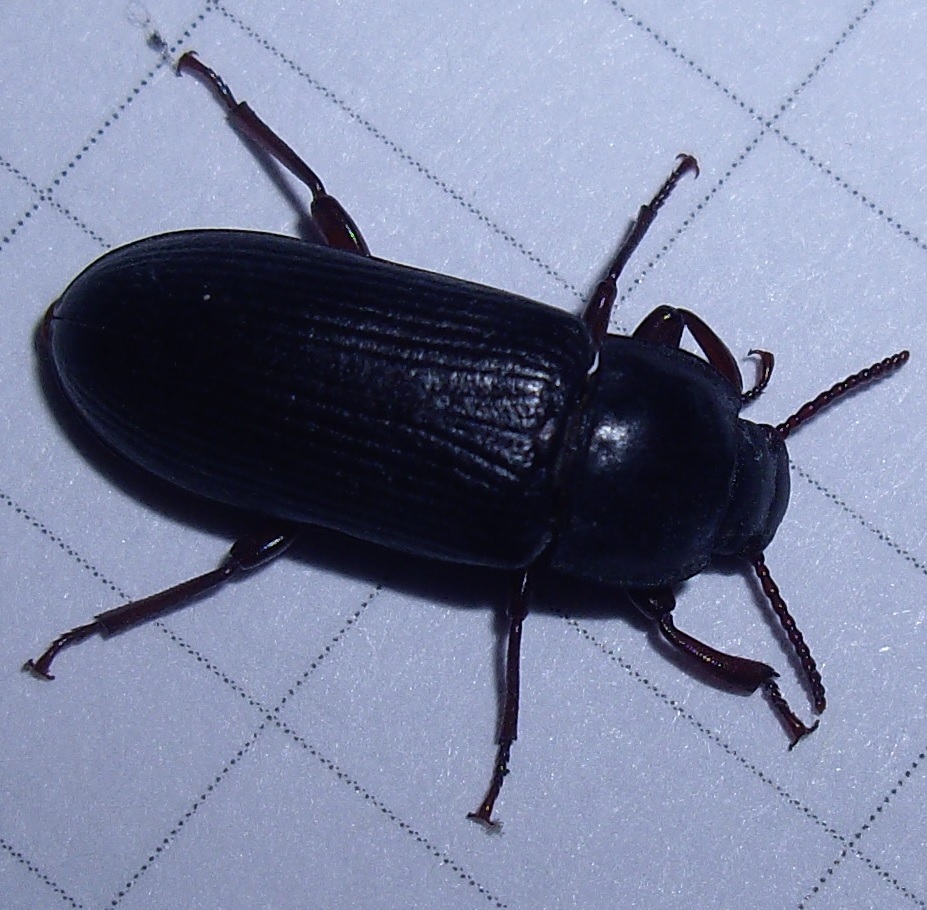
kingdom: Animalia
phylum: Arthropoda
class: Insecta
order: Coleoptera
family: Tenebrionidae
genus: Tenebrio
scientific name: Tenebrio molitor
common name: Hardback beetle
